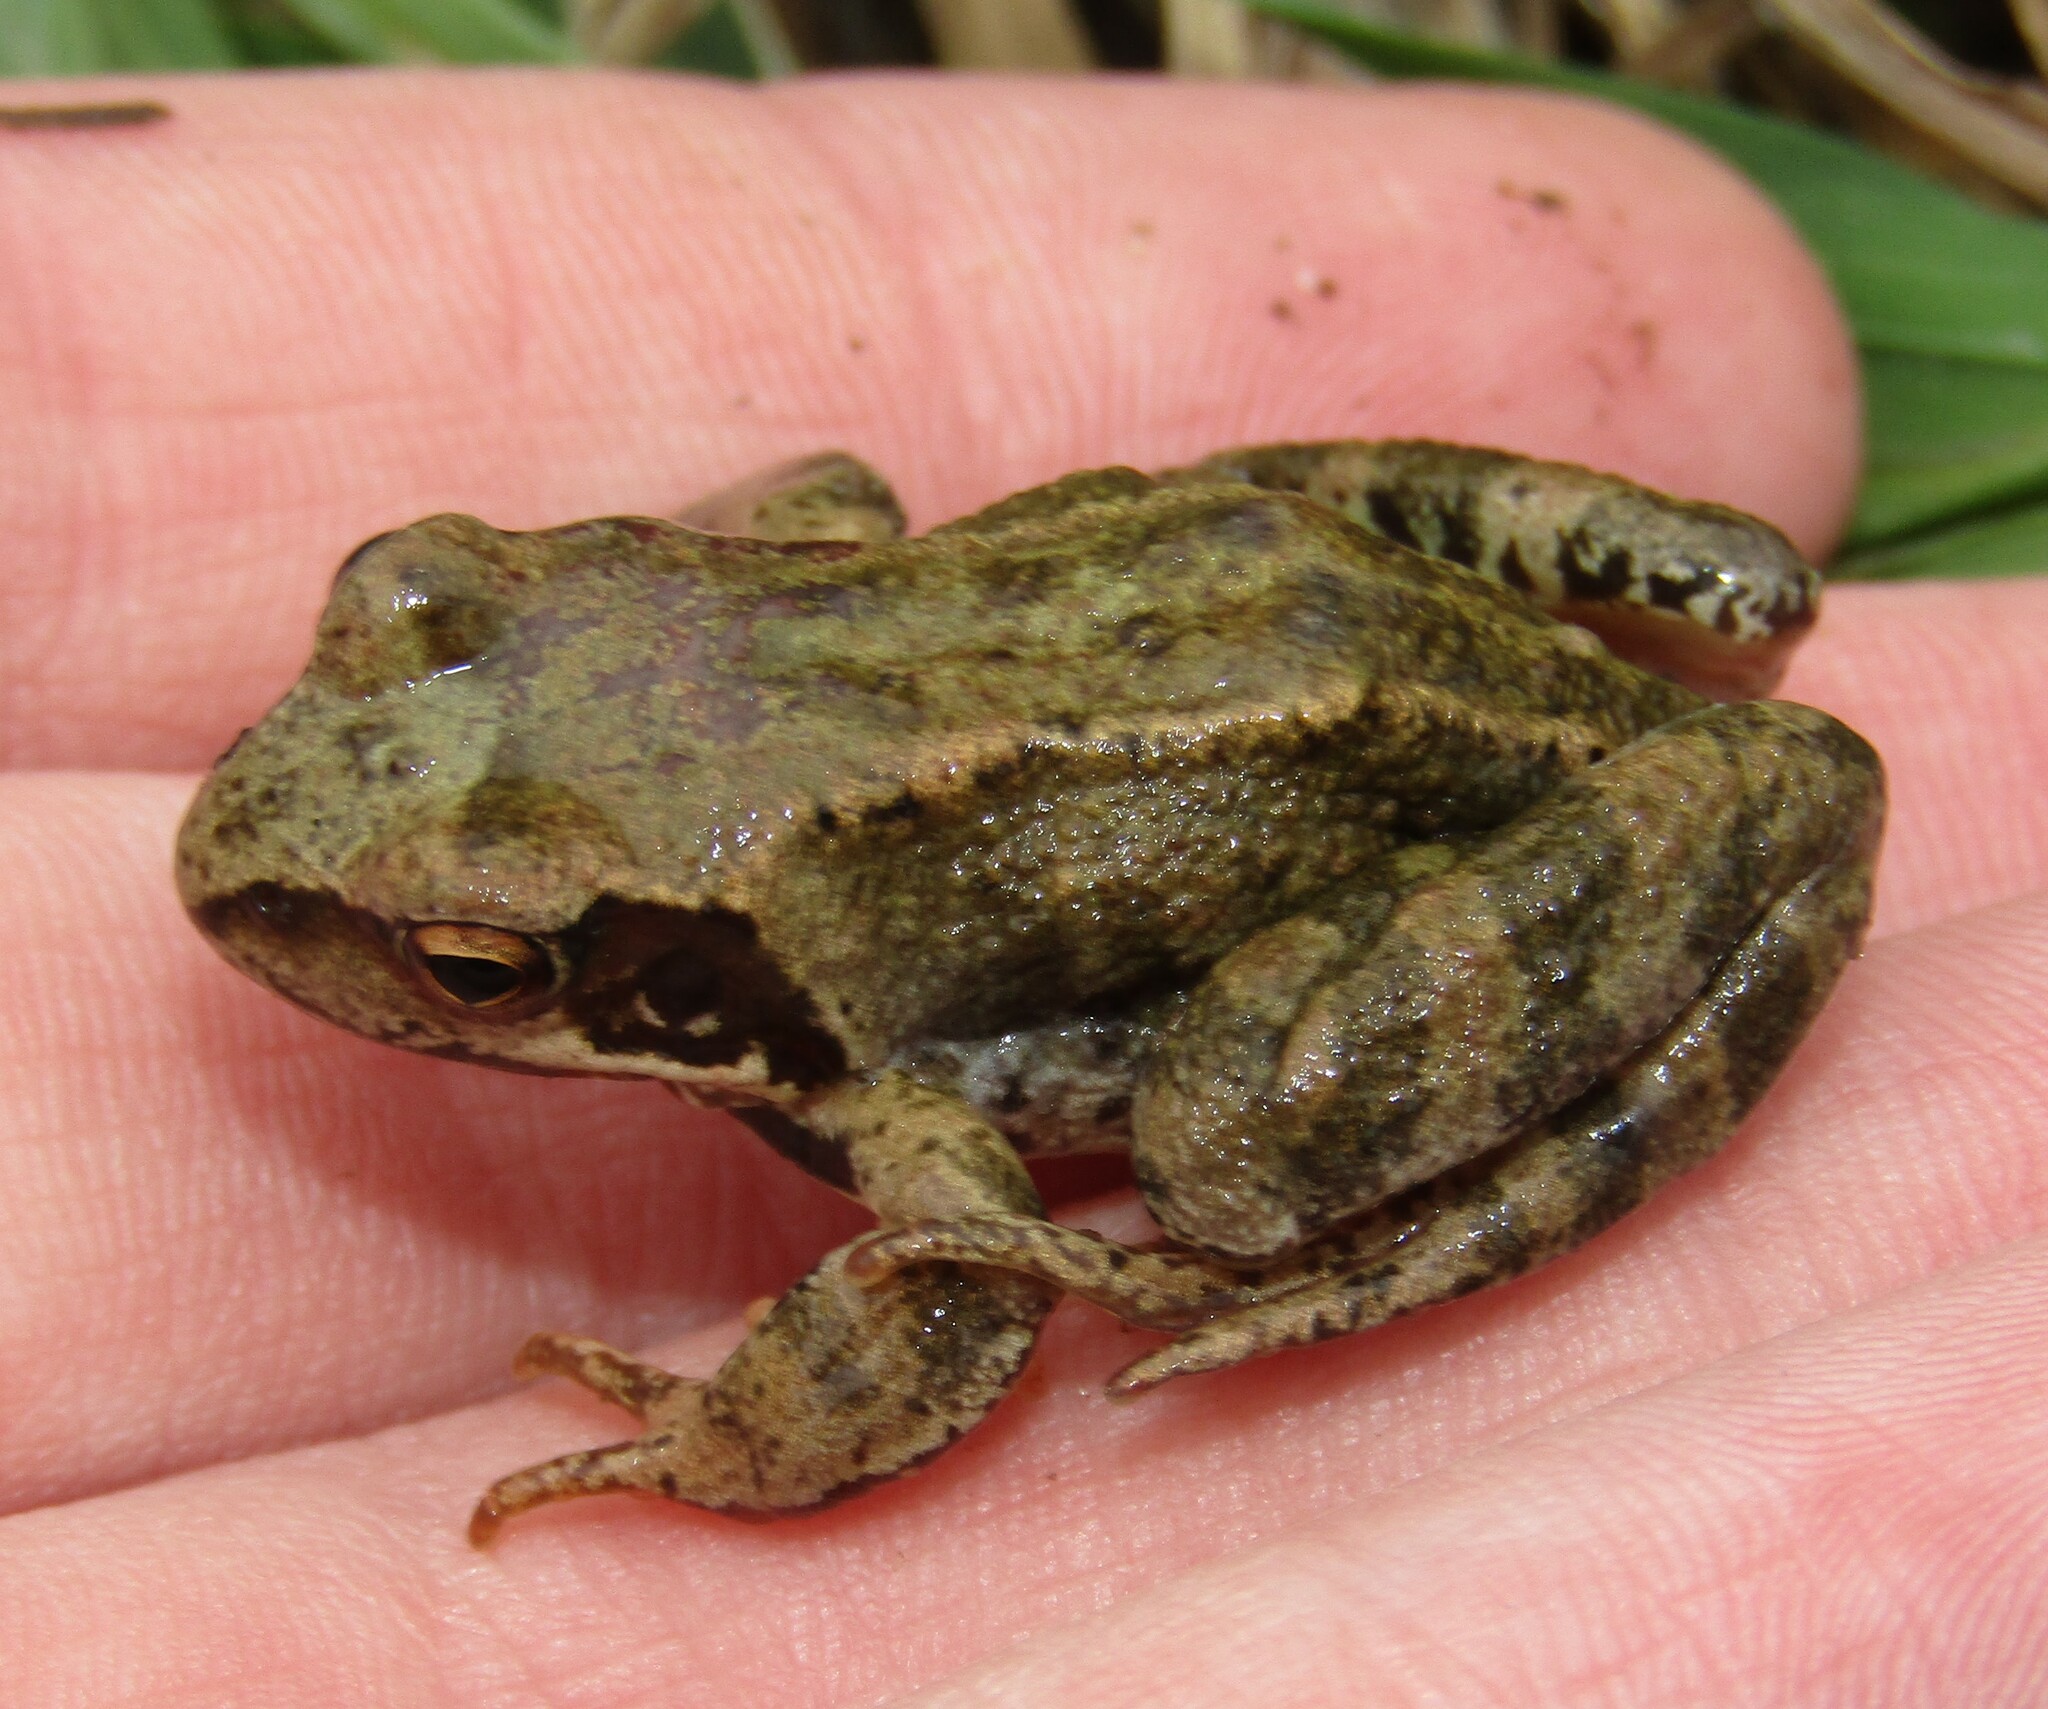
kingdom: Animalia
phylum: Chordata
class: Amphibia
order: Anura
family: Ranidae
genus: Rana
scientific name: Rana temporaria
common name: Common frog
